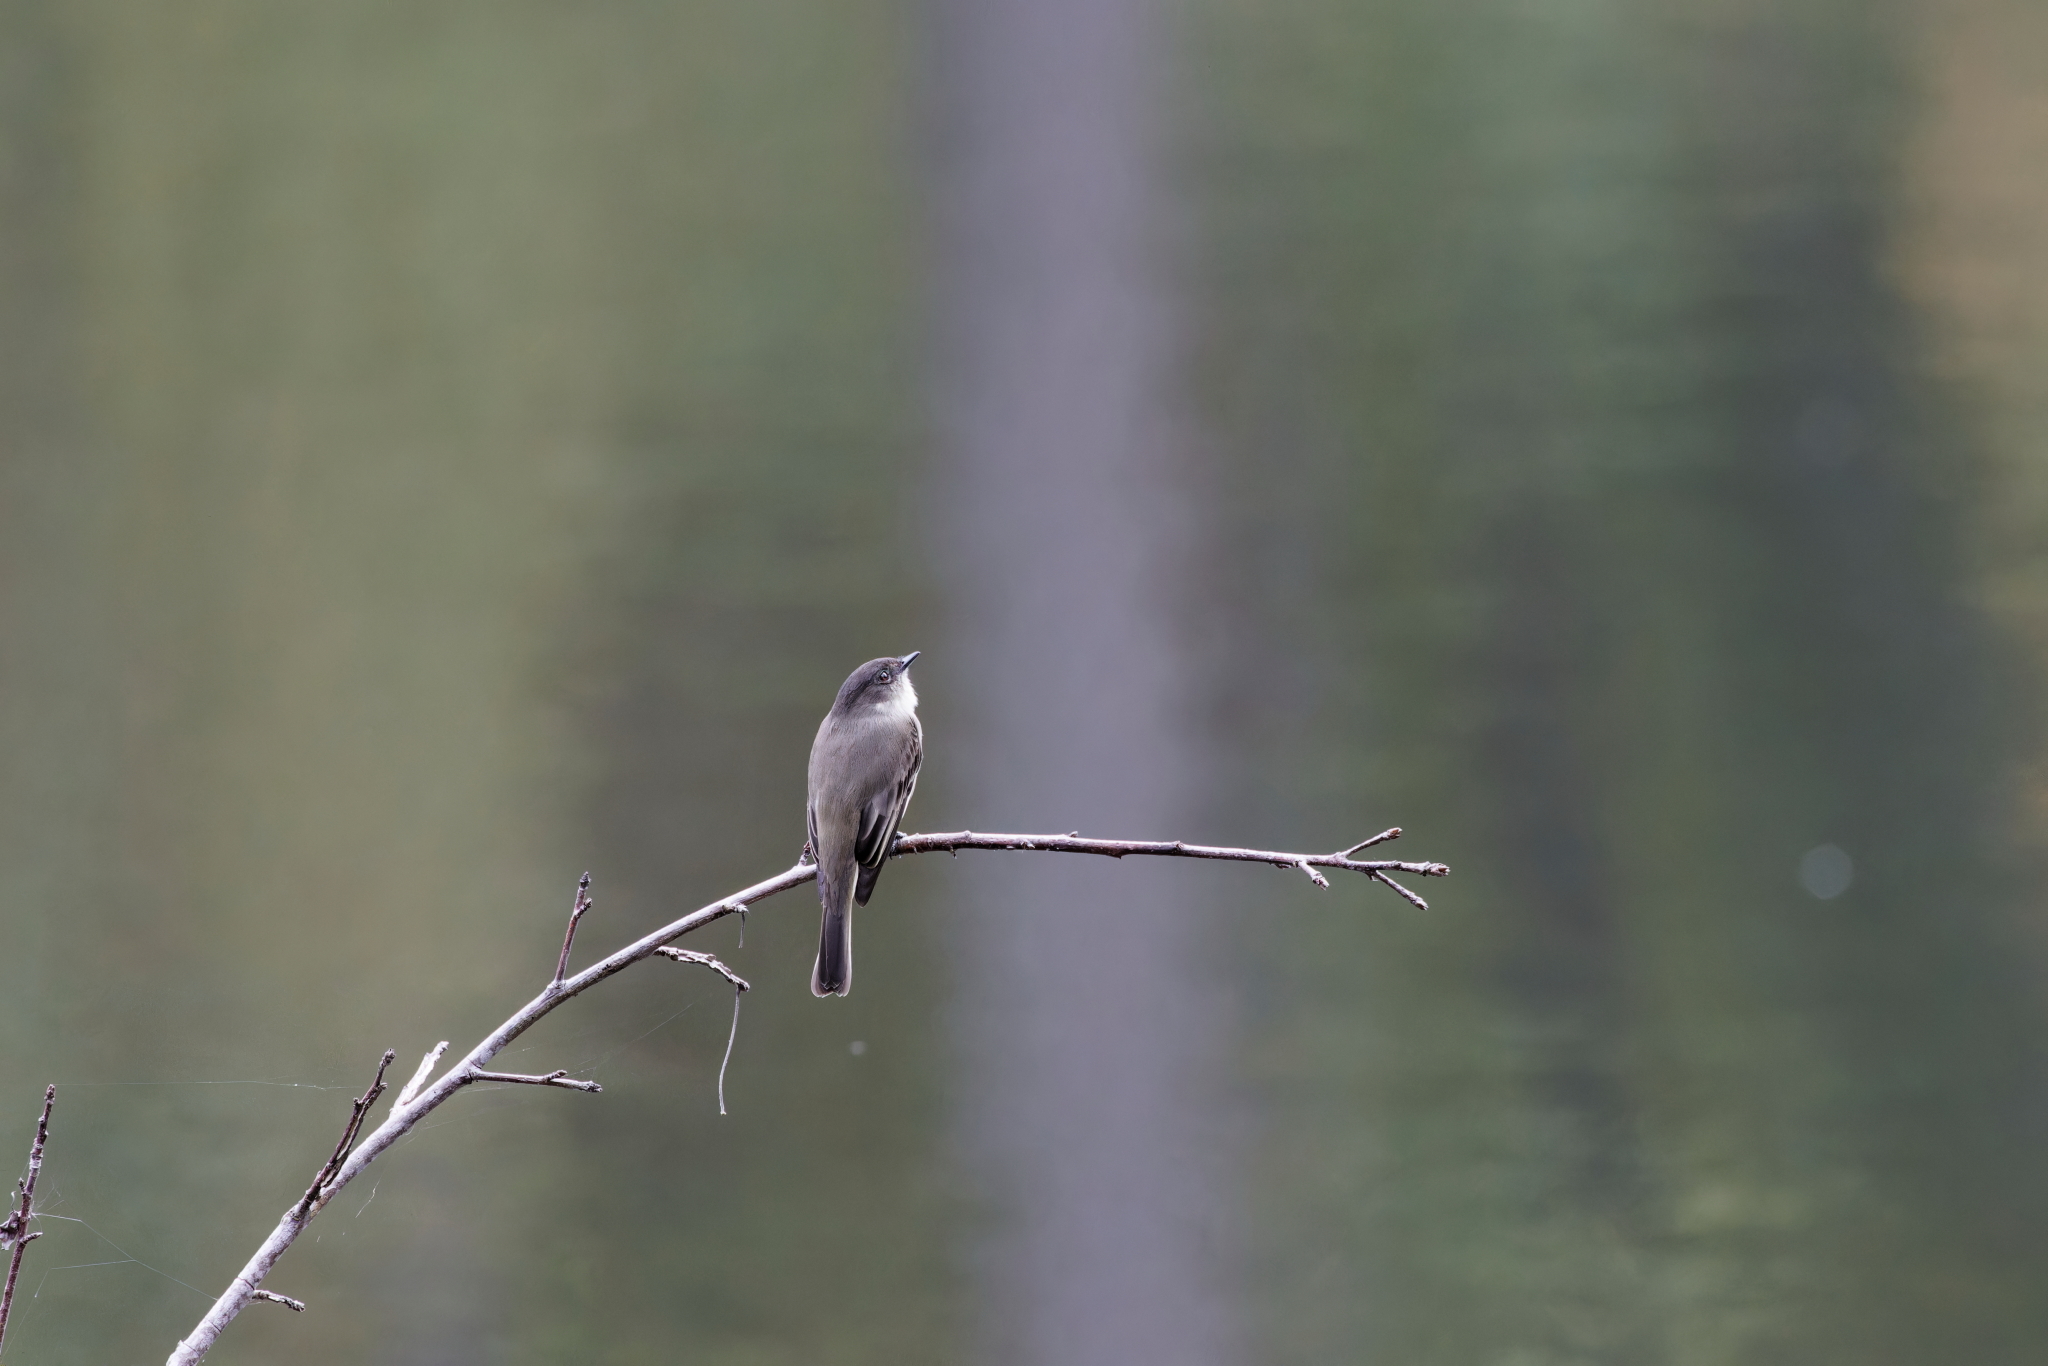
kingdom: Animalia
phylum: Chordata
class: Aves
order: Passeriformes
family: Tyrannidae
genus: Sayornis
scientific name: Sayornis phoebe
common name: Eastern phoebe
